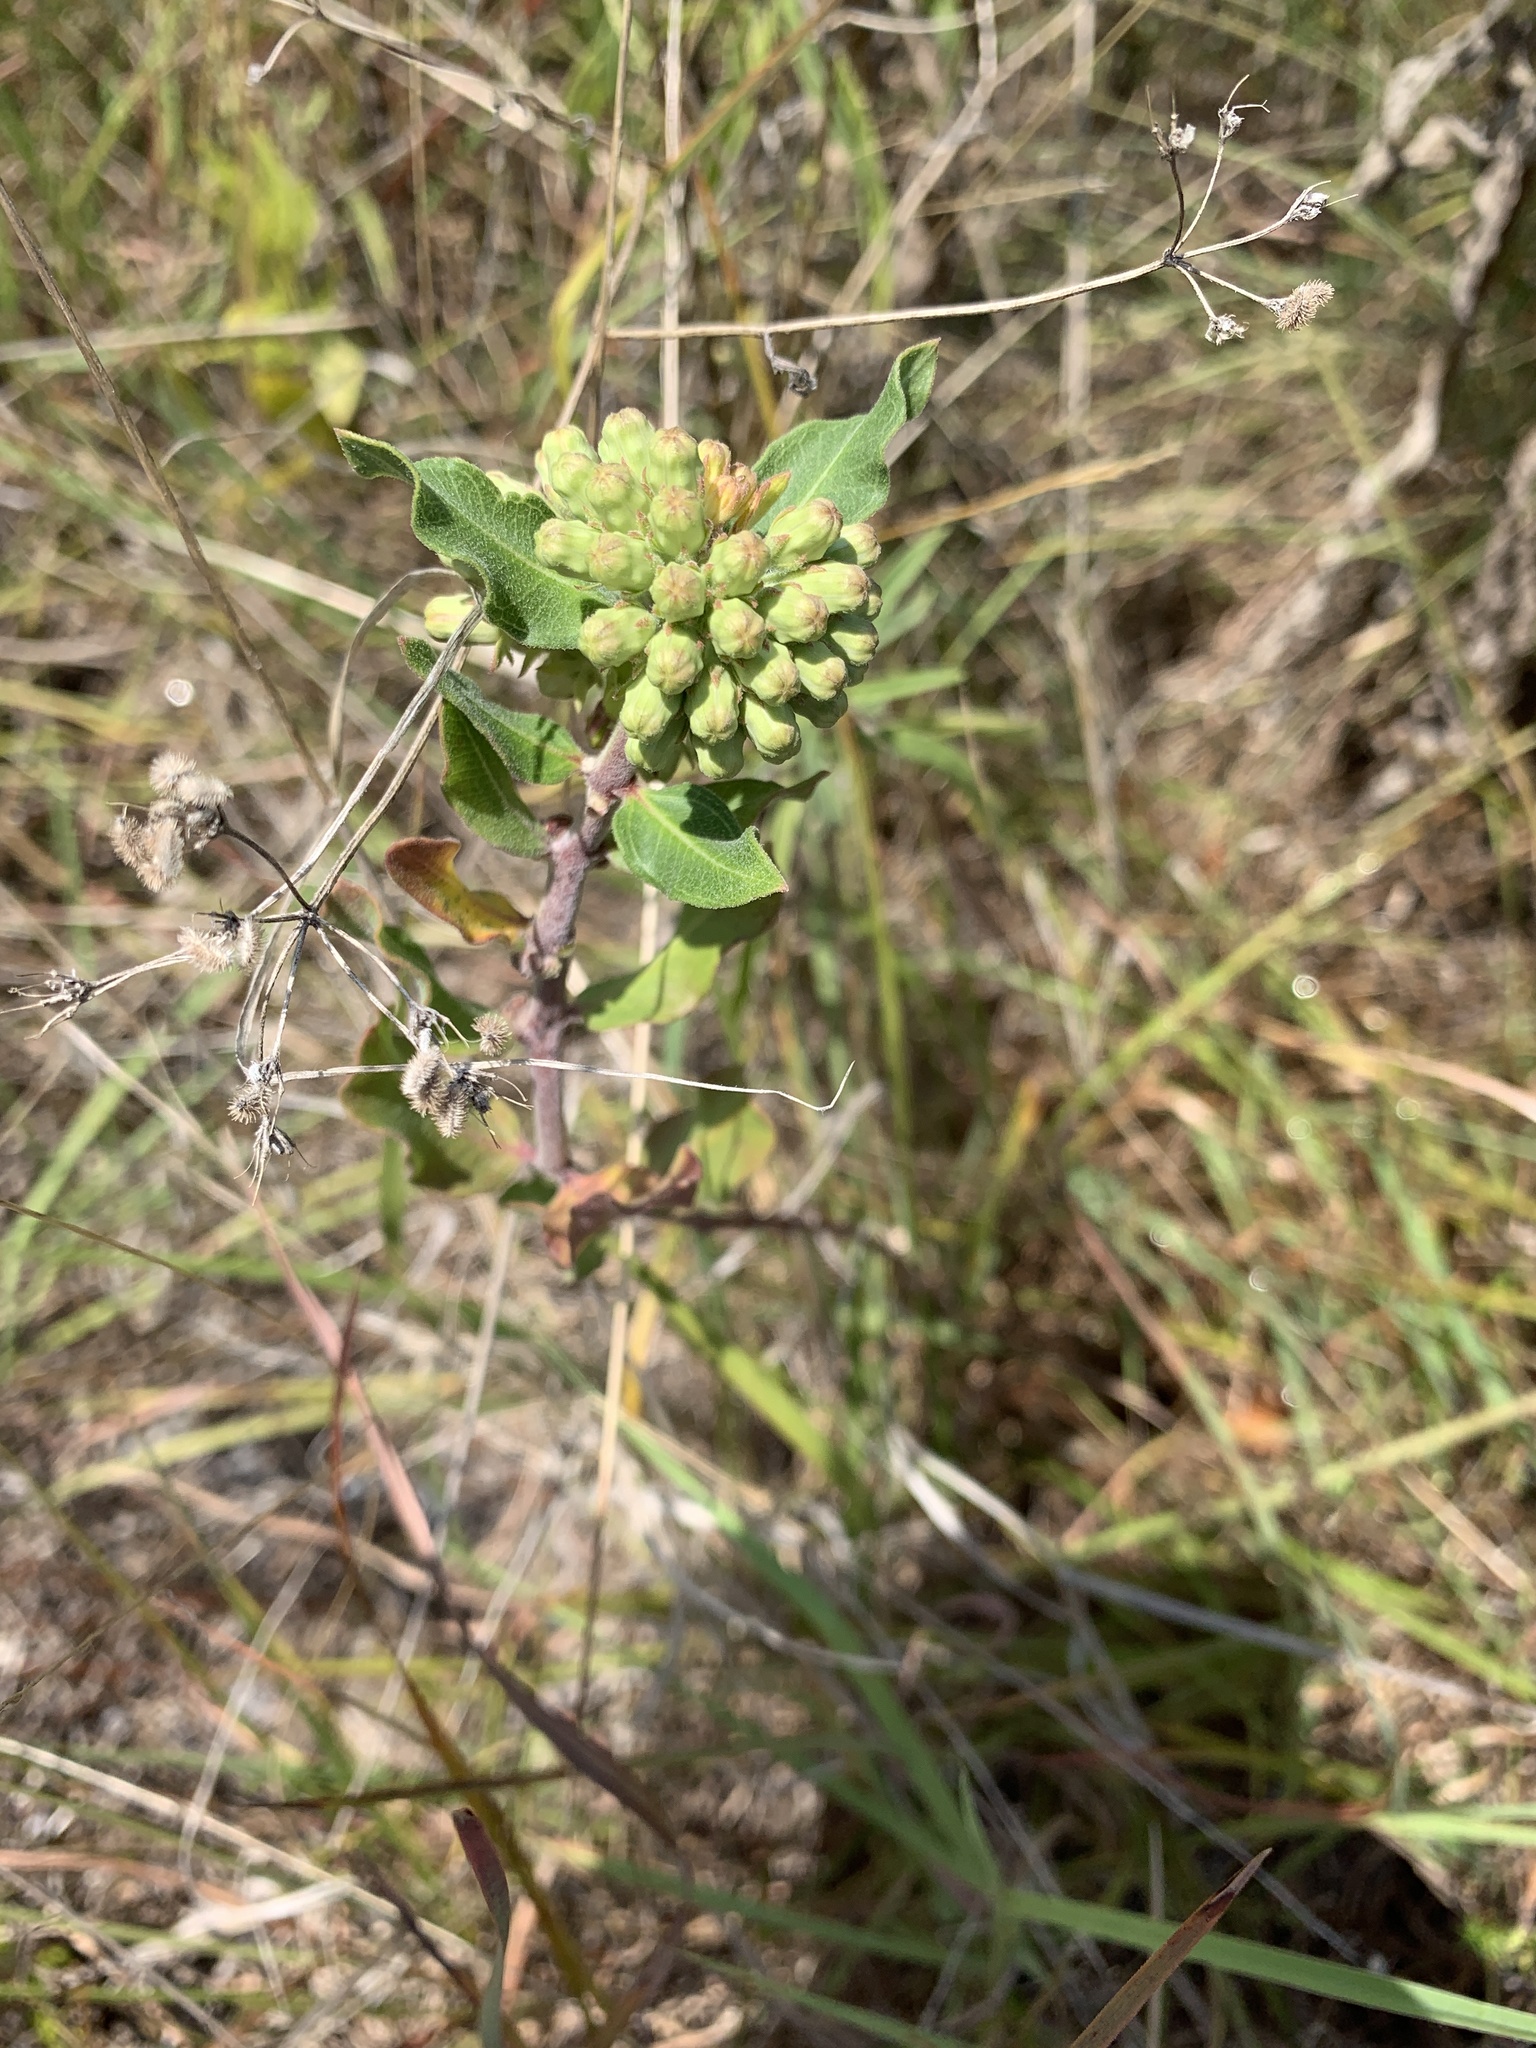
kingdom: Plantae
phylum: Tracheophyta
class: Magnoliopsida
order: Gentianales
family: Apocynaceae
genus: Asclepias
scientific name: Asclepias viridiflora
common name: Green comet milkweed
